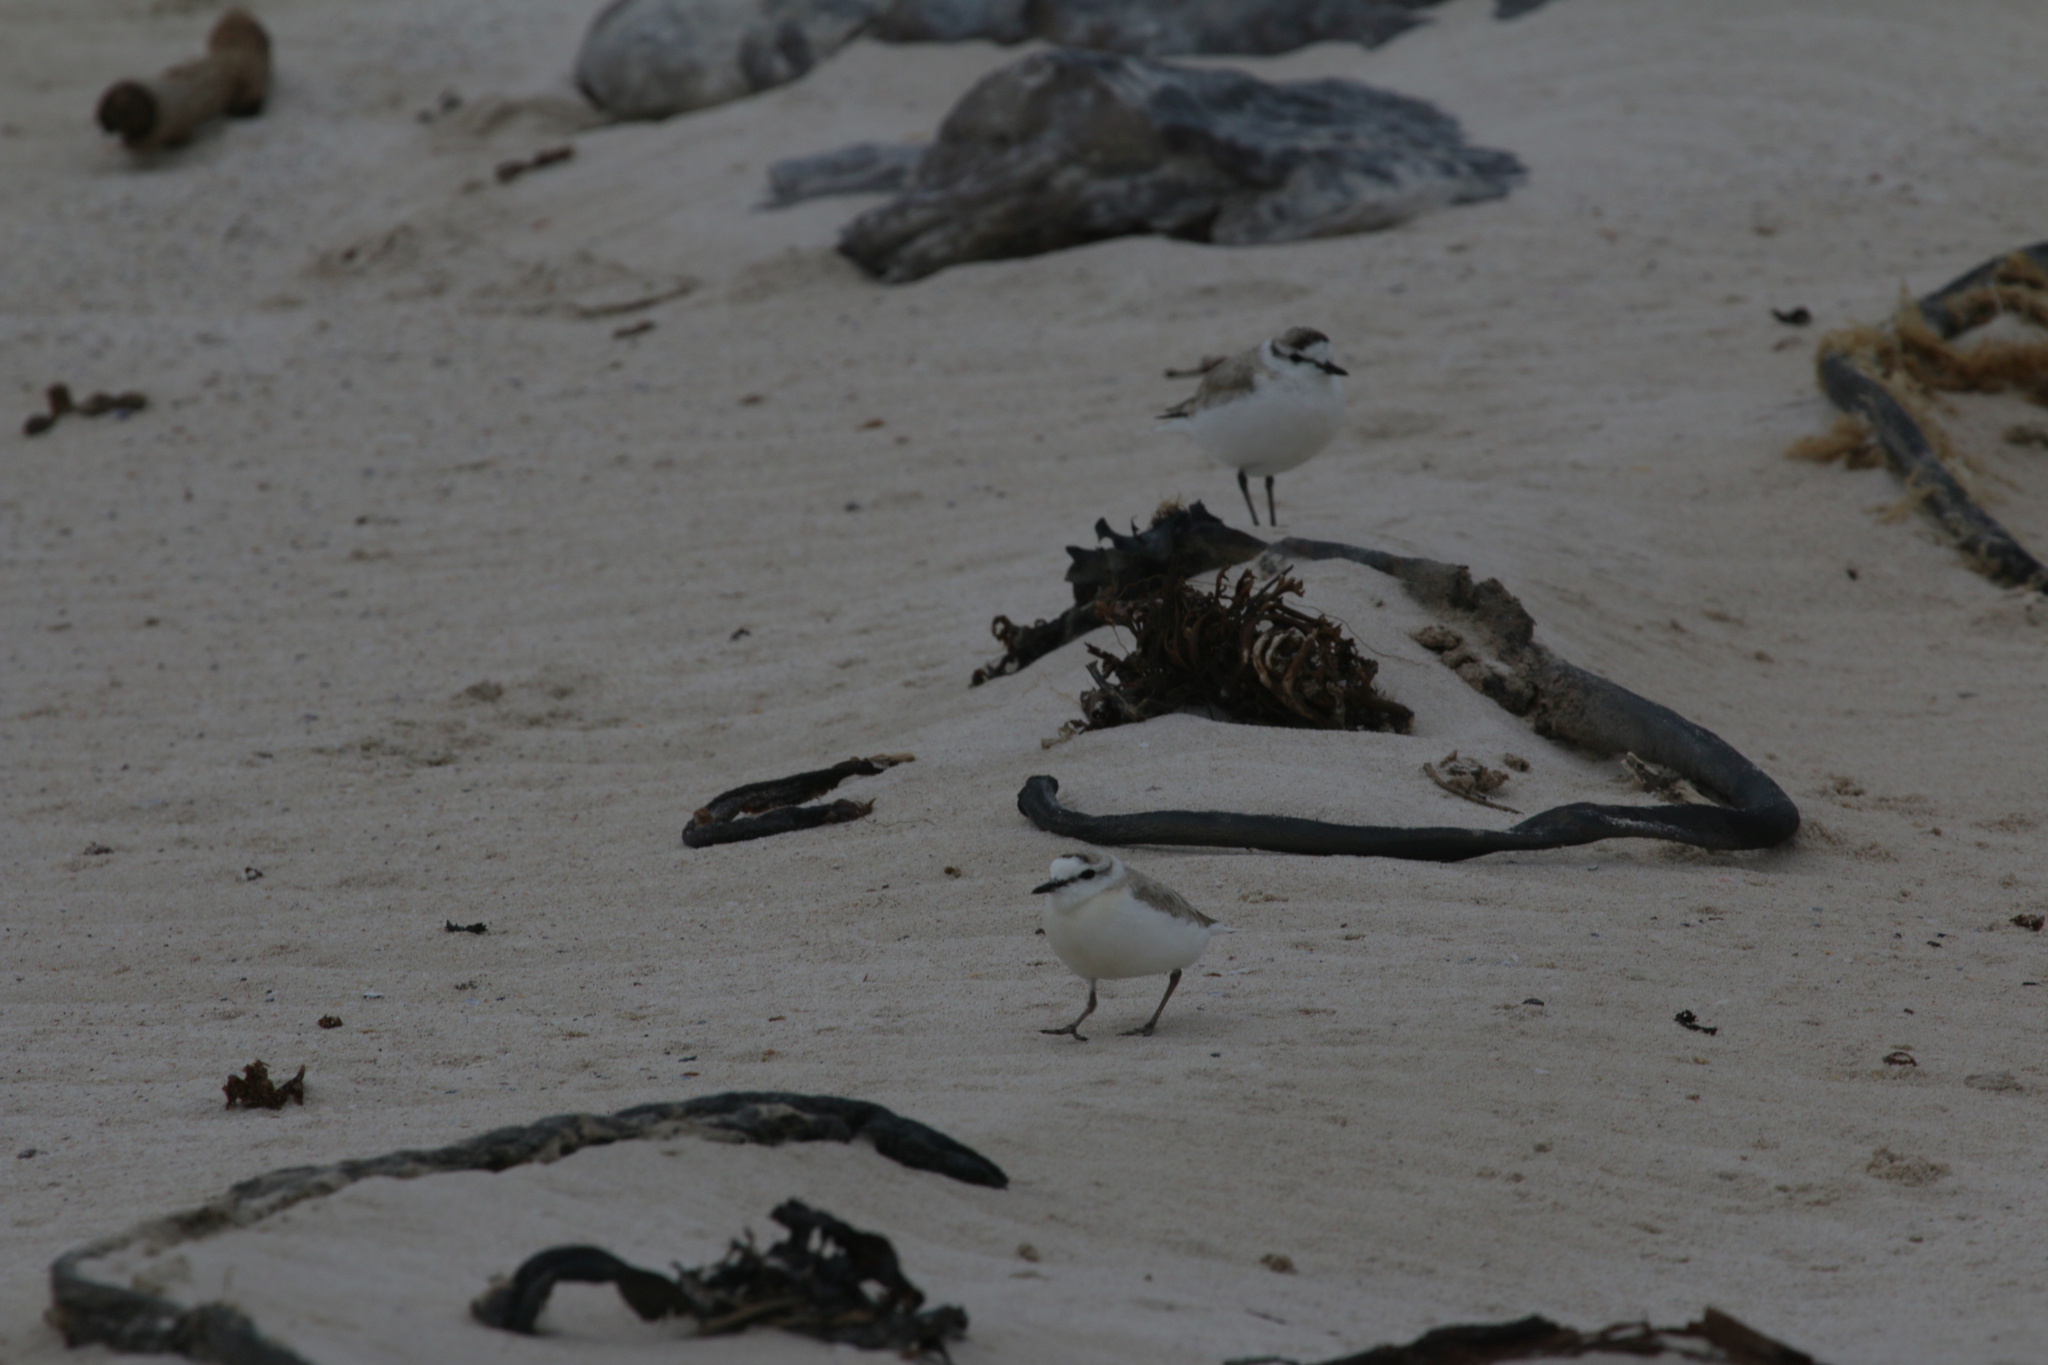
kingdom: Animalia
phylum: Chordata
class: Aves
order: Charadriiformes
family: Charadriidae
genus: Anarhynchus
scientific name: Anarhynchus
